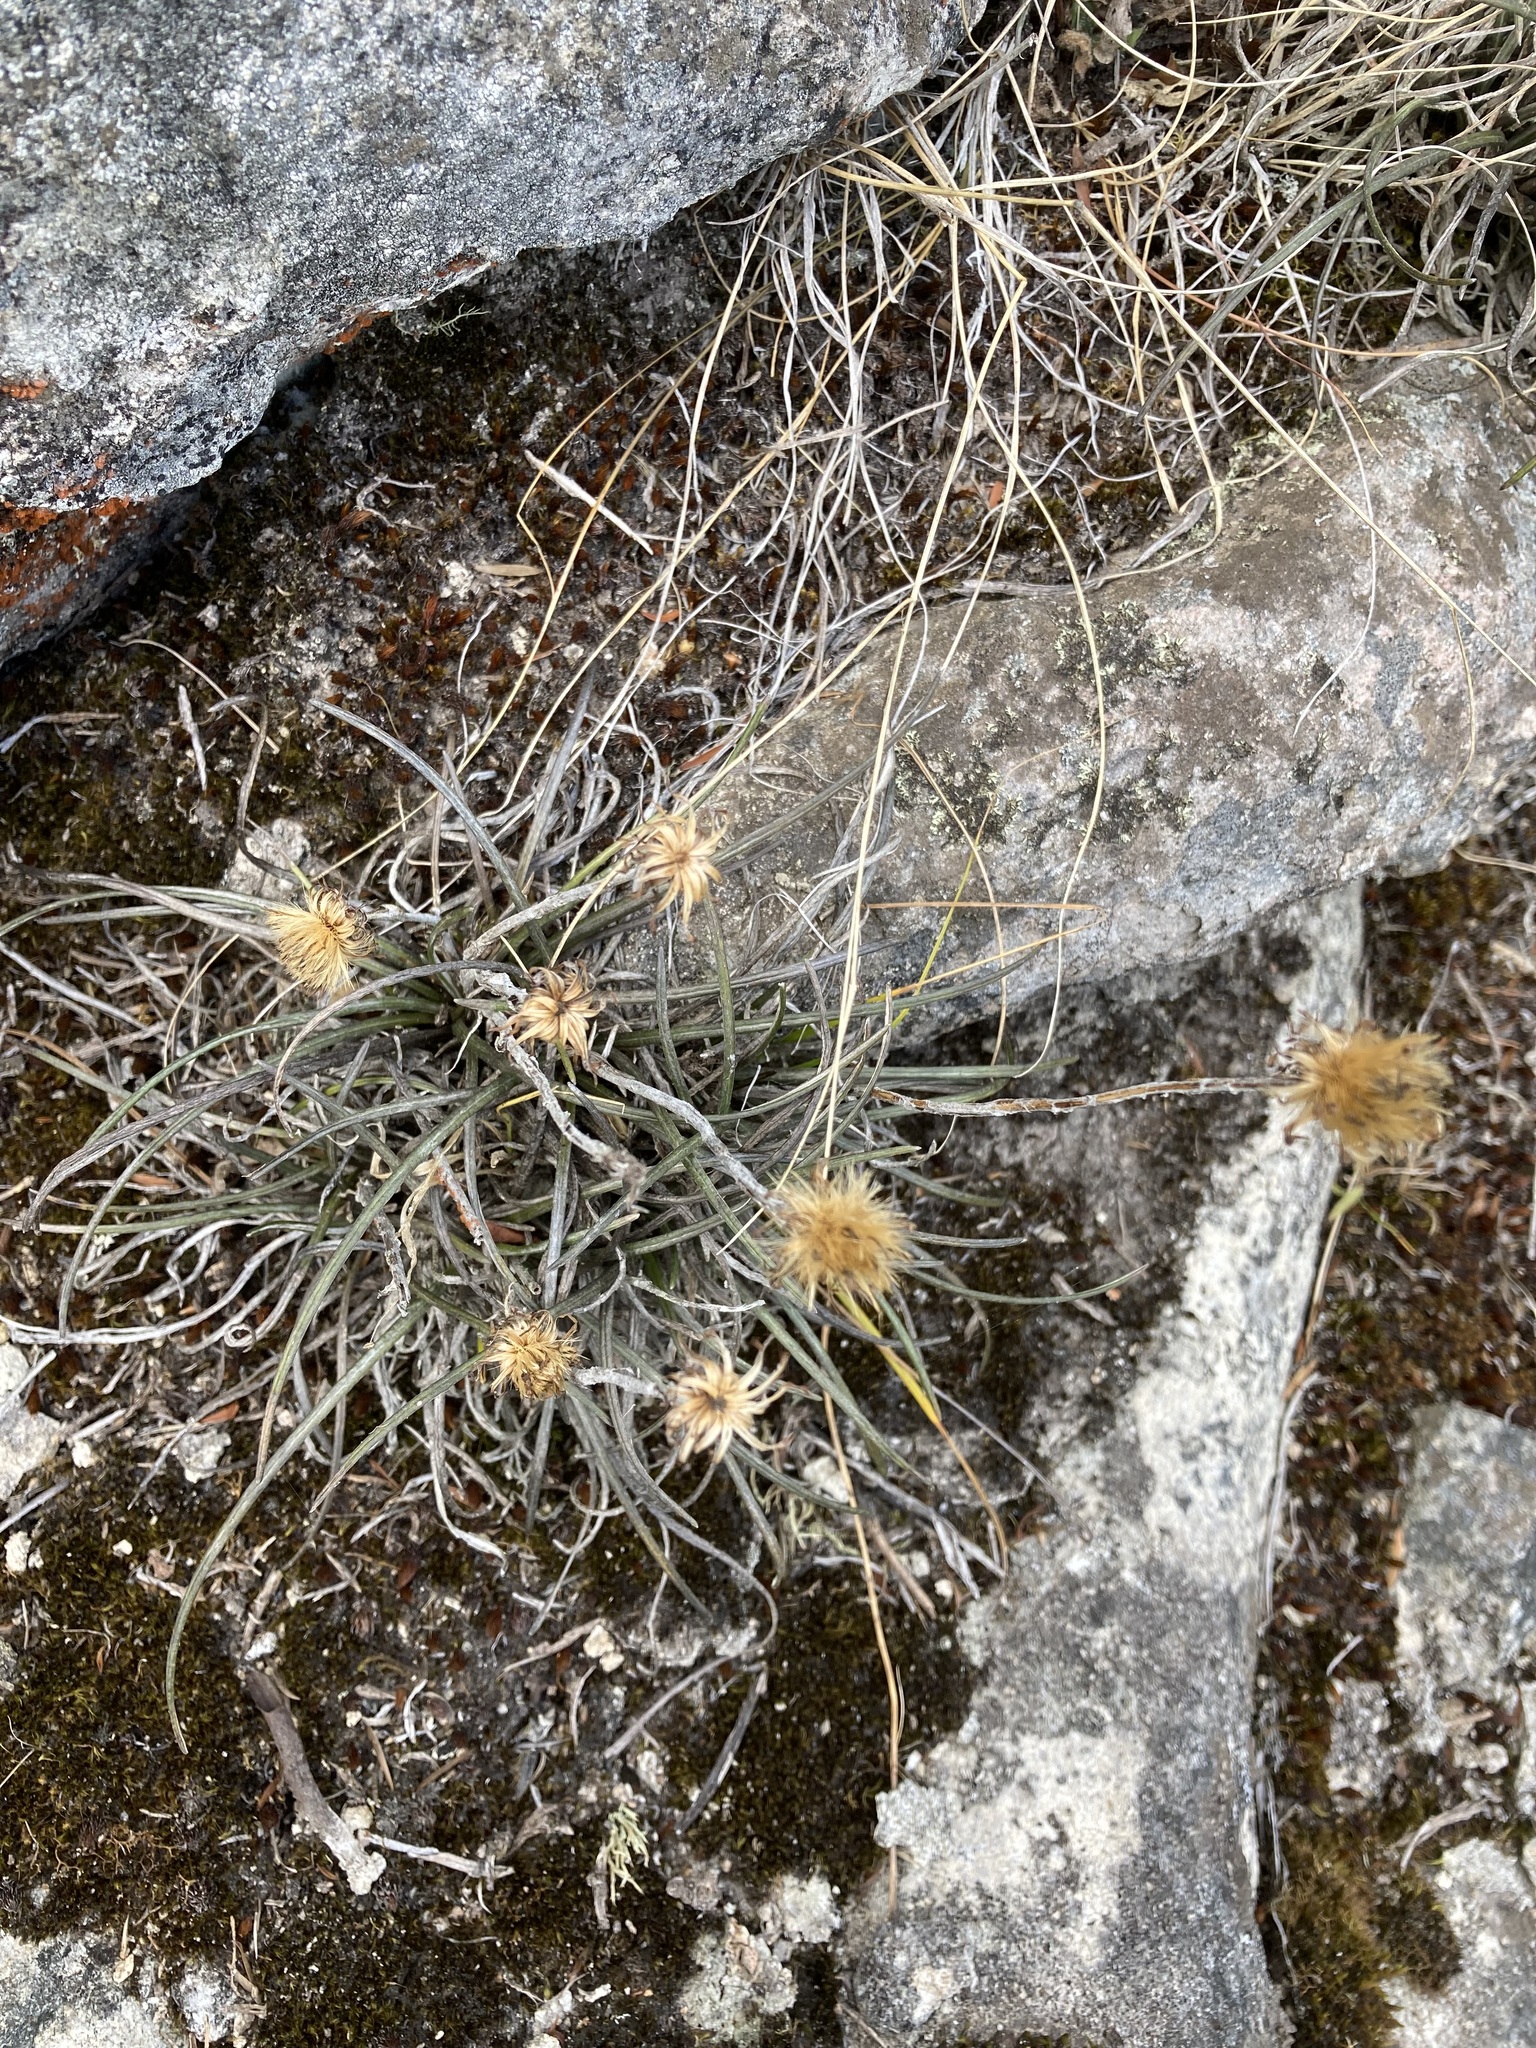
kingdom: Plantae
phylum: Tracheophyta
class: Magnoliopsida
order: Asterales
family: Asteraceae
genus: Celmisia
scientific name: Celmisia gracilenta
